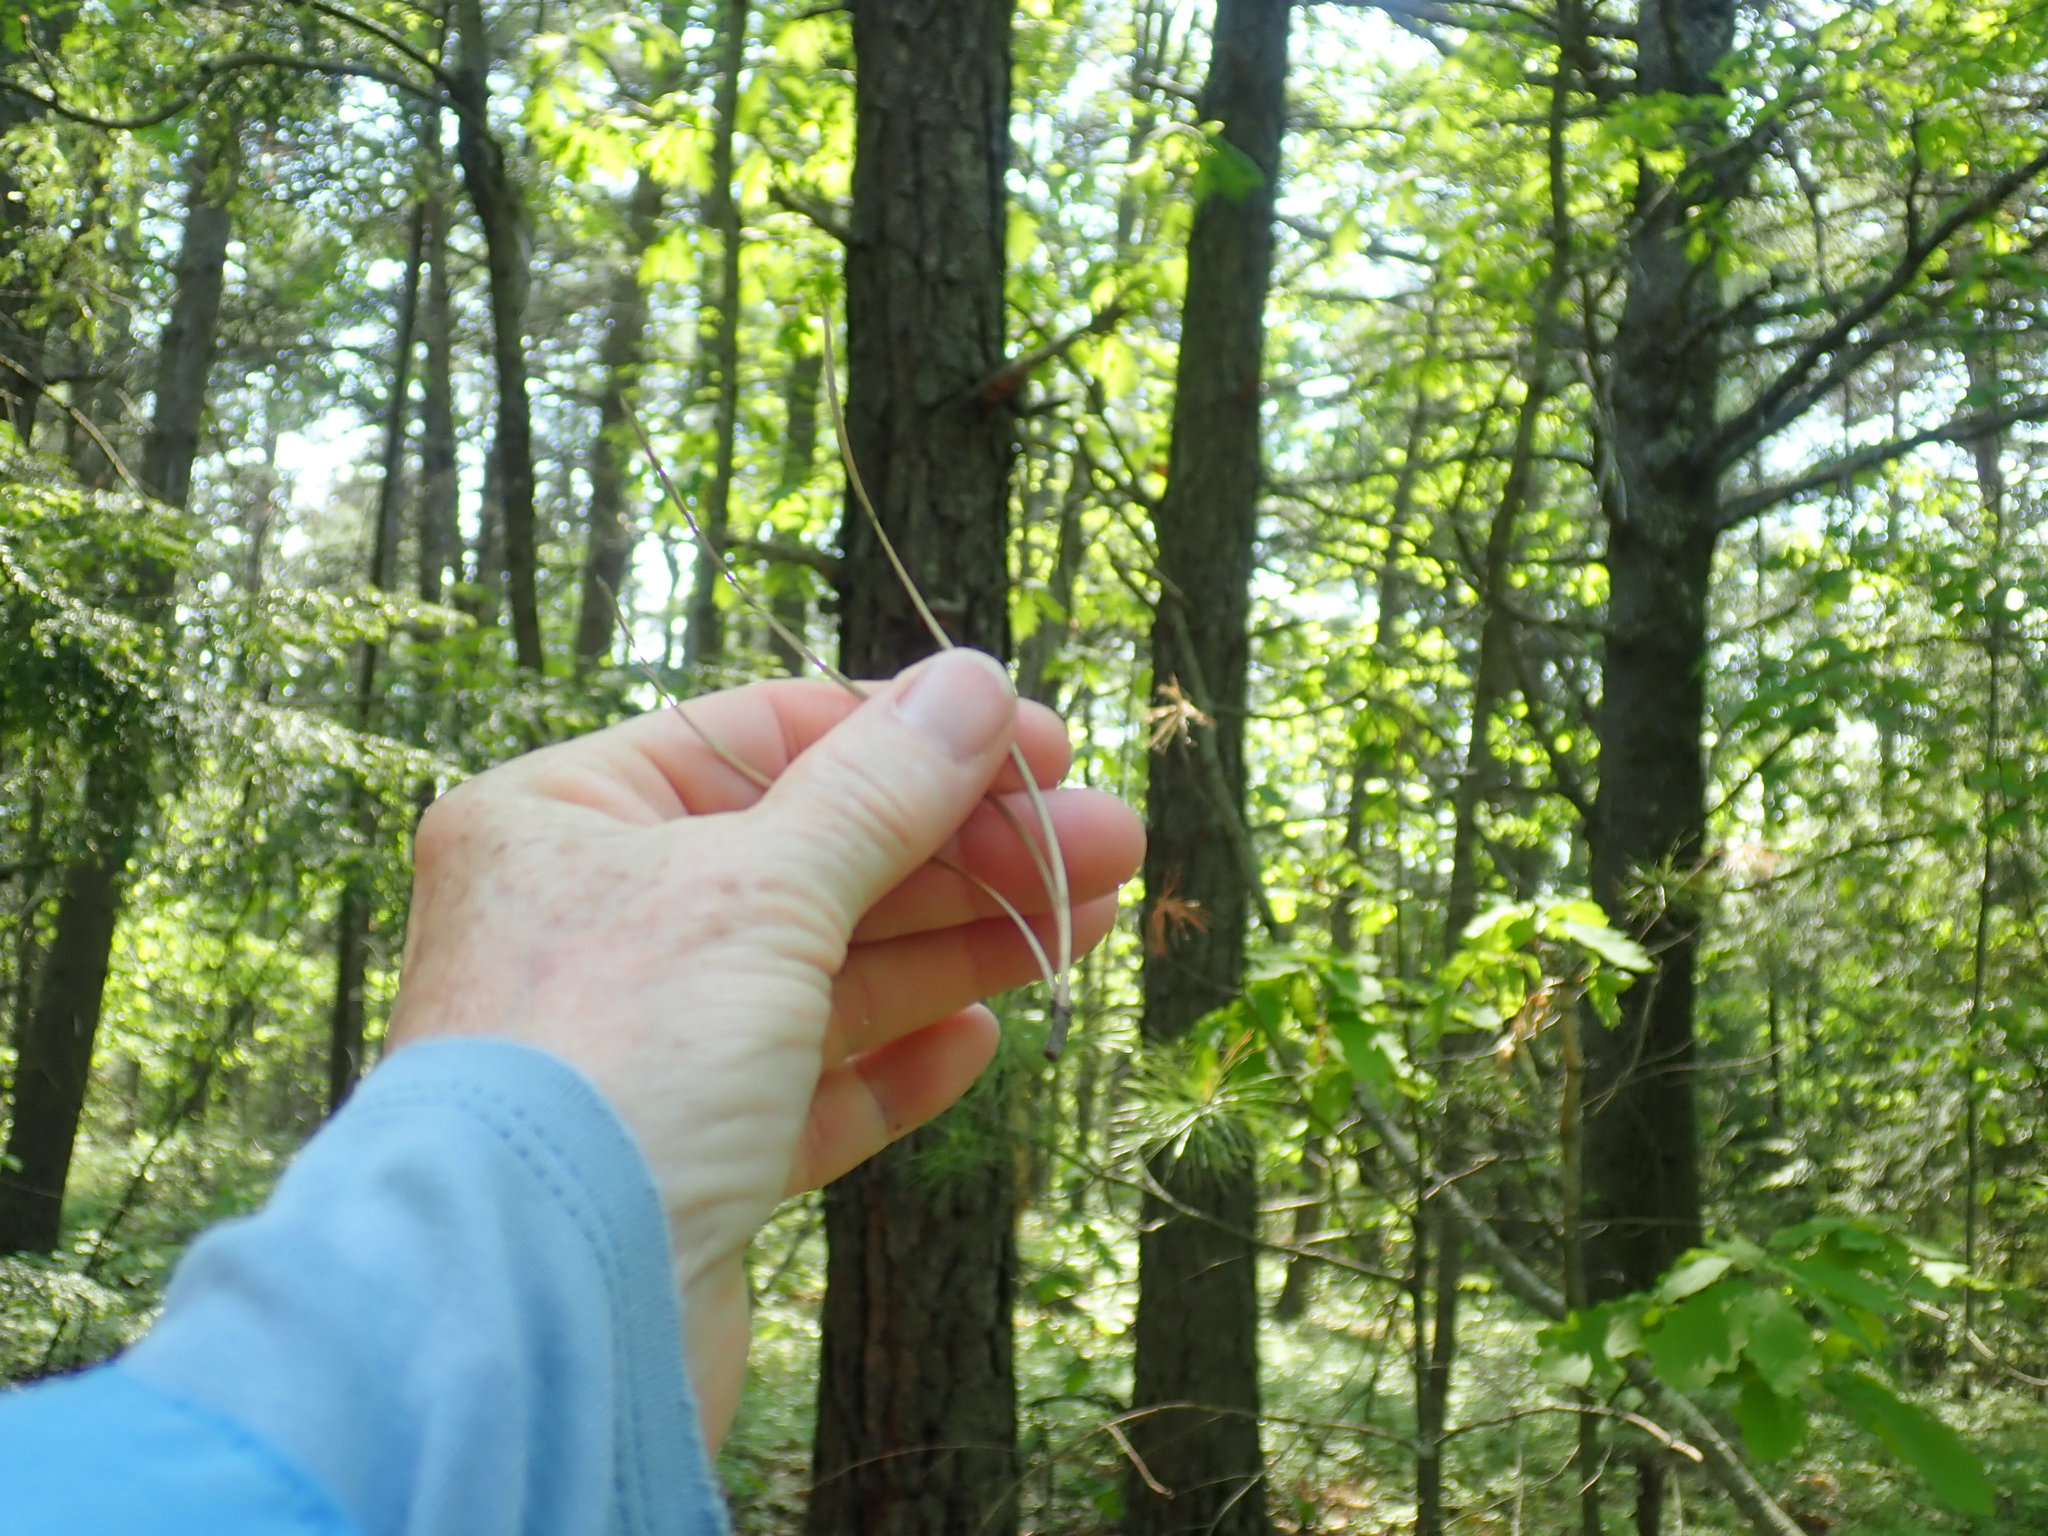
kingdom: Plantae
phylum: Tracheophyta
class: Pinopsida
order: Pinales
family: Pinaceae
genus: Pinus
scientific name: Pinus rigida
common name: Pitch pine
